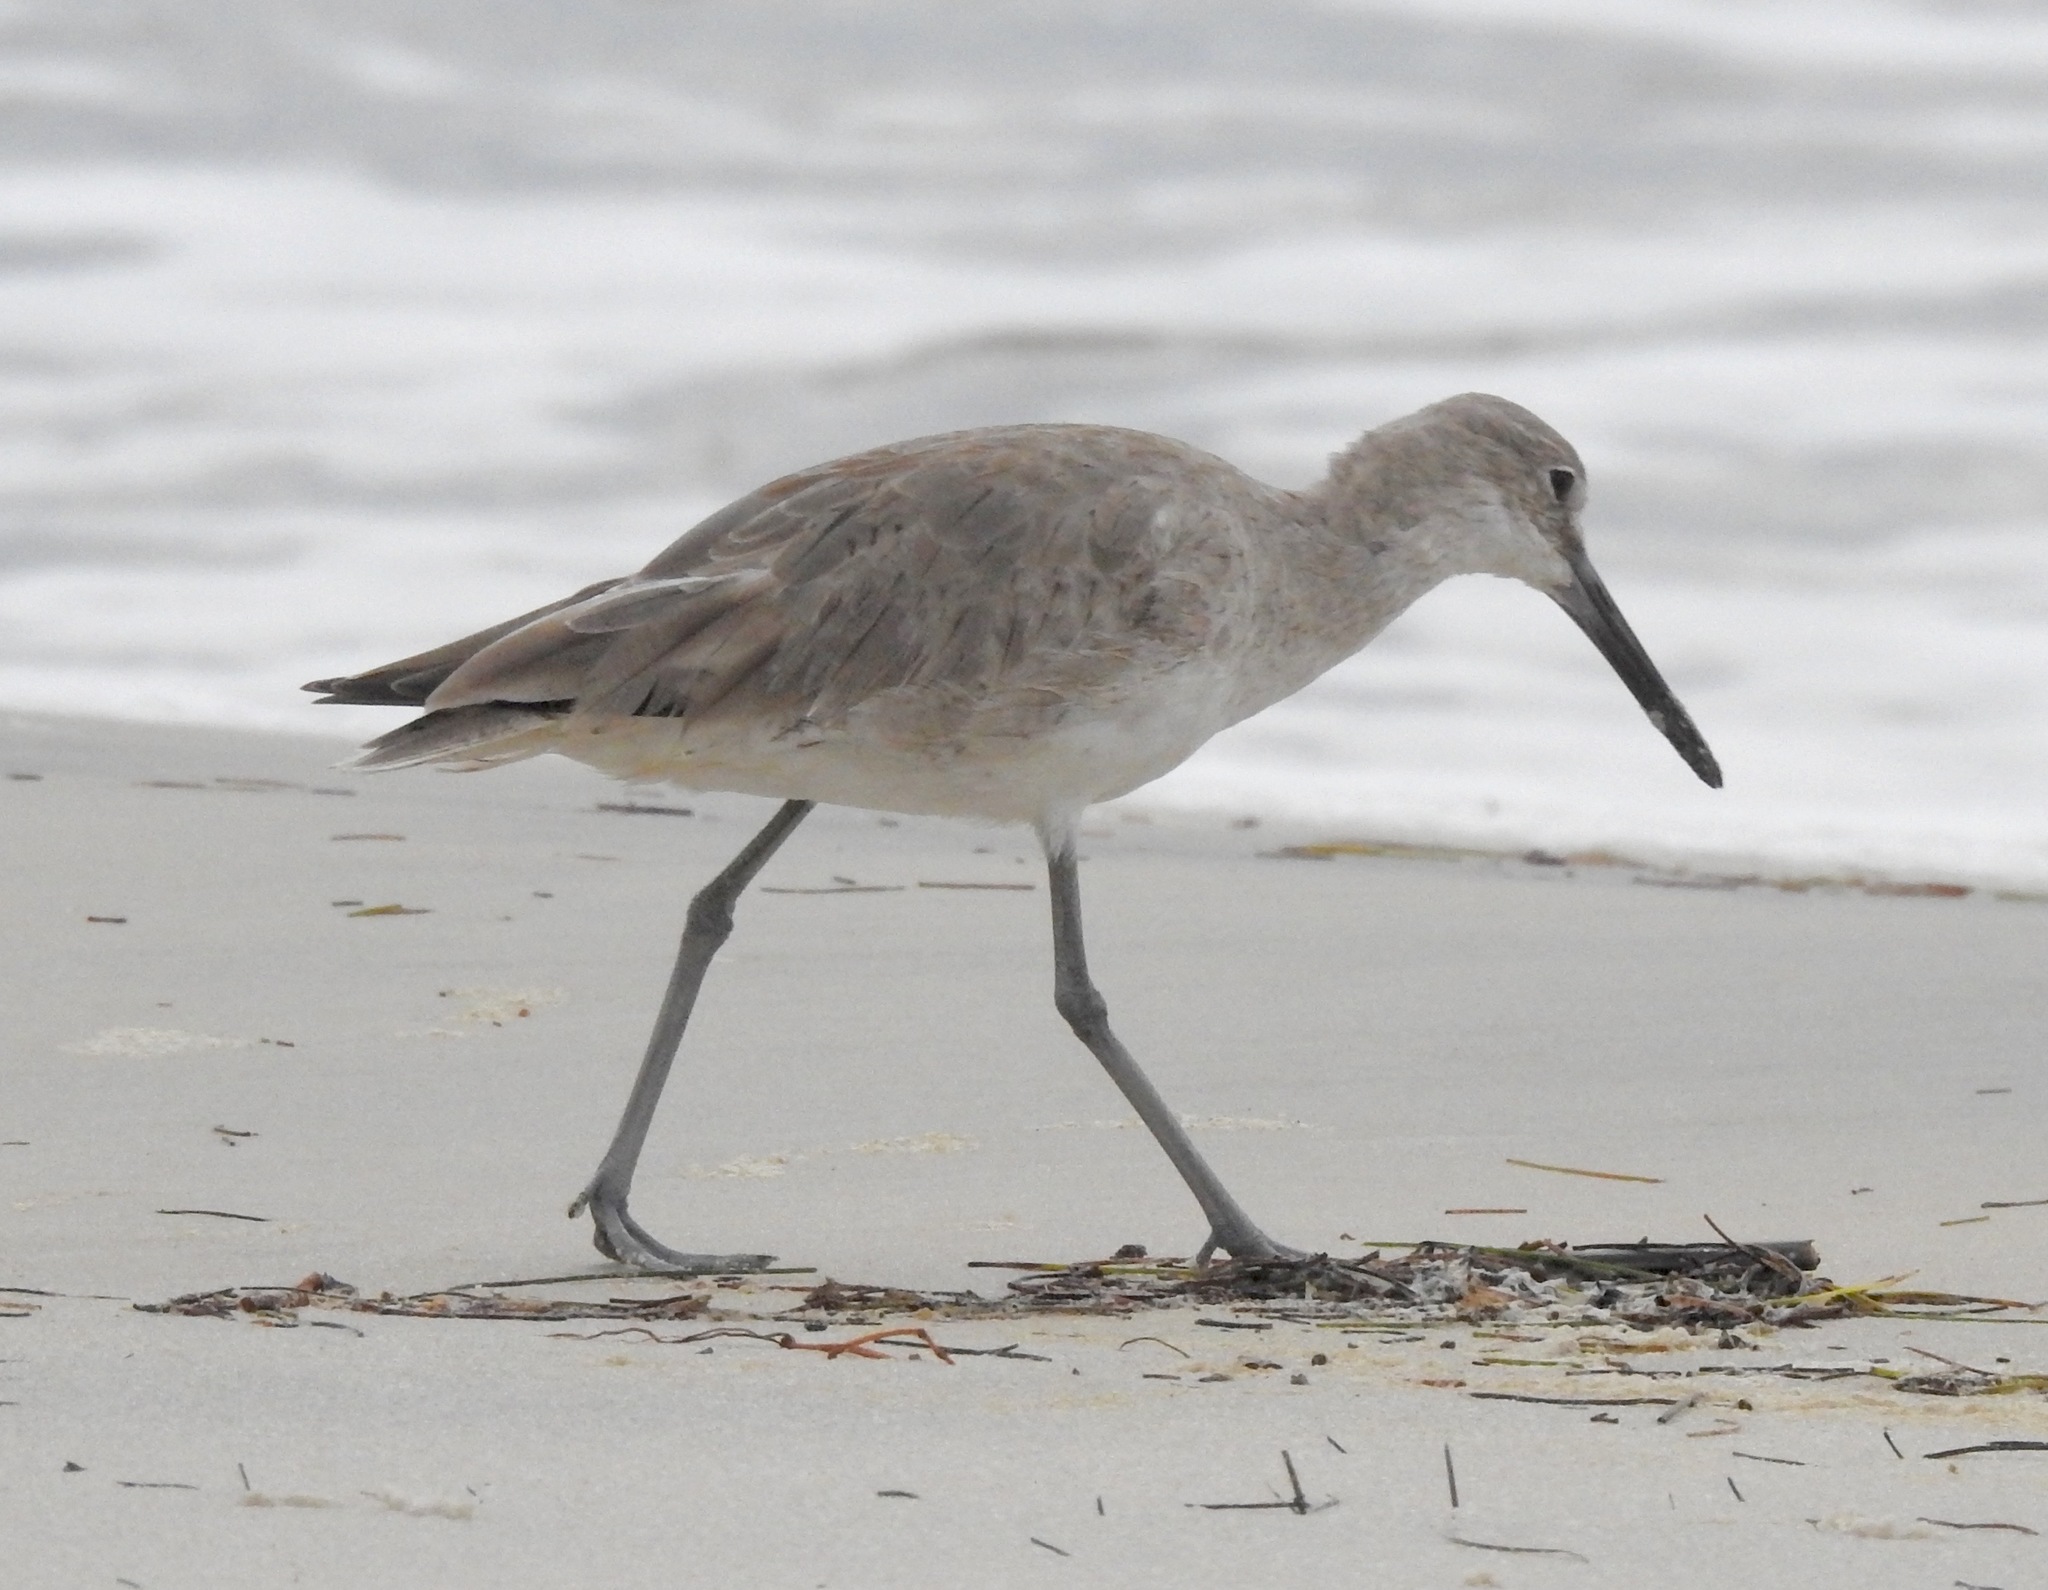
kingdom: Animalia
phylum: Chordata
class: Aves
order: Charadriiformes
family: Scolopacidae
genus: Tringa
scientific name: Tringa semipalmata
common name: Willet
